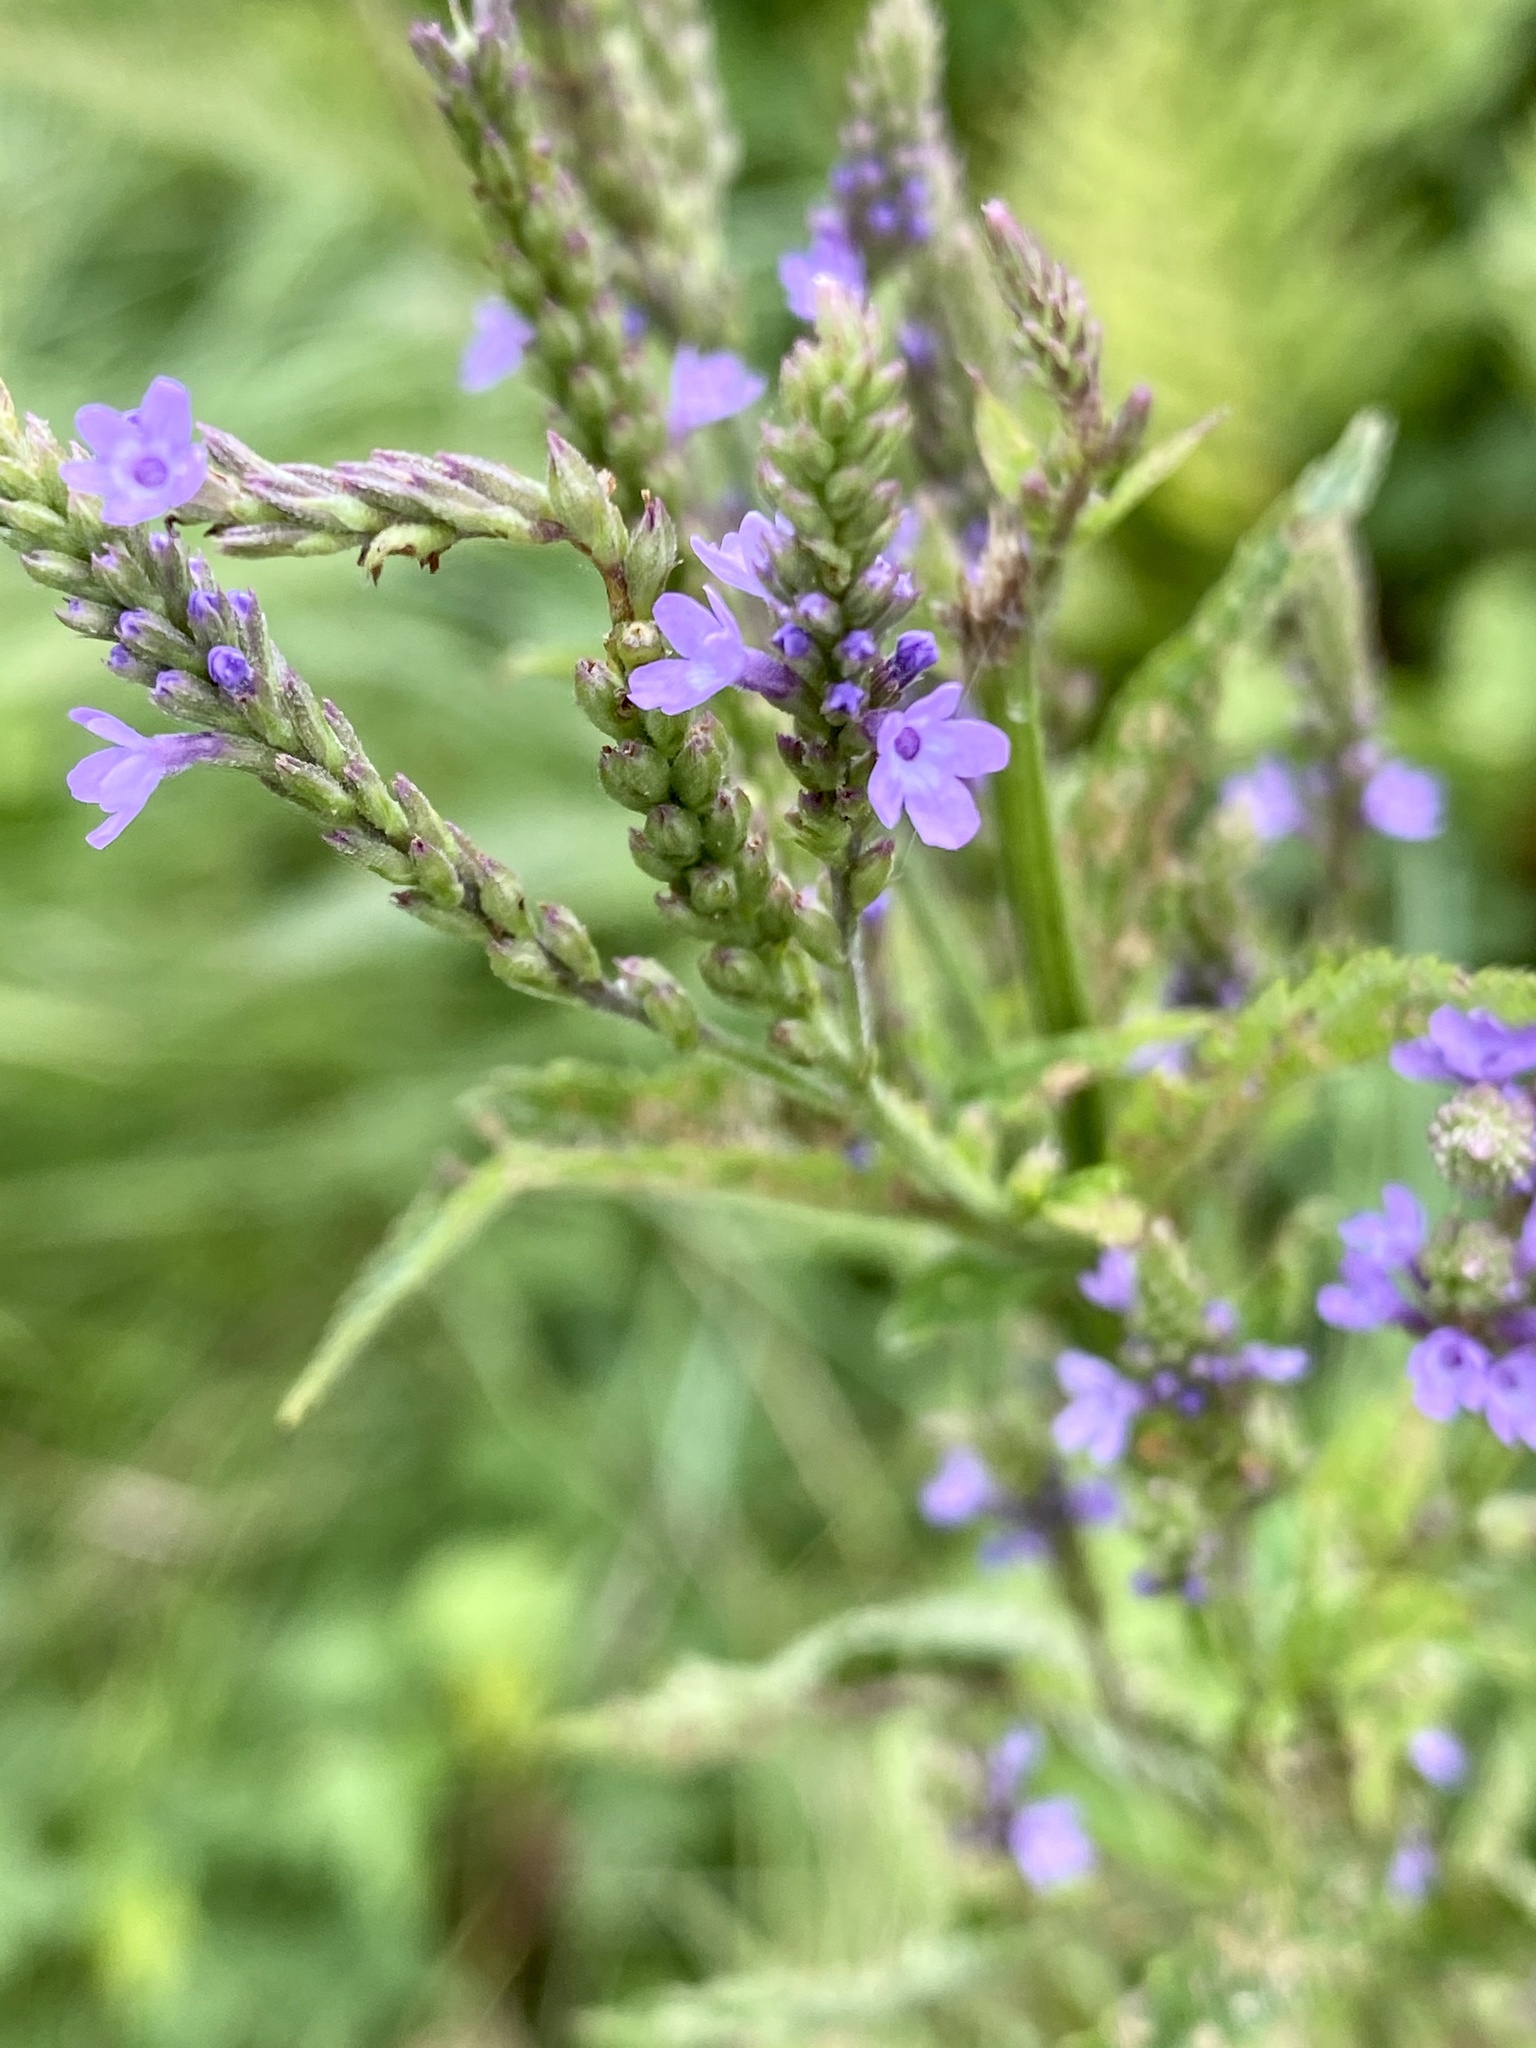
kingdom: Plantae
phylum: Tracheophyta
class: Magnoliopsida
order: Lamiales
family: Verbenaceae
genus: Verbena
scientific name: Verbena hastata
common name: American blue vervain
